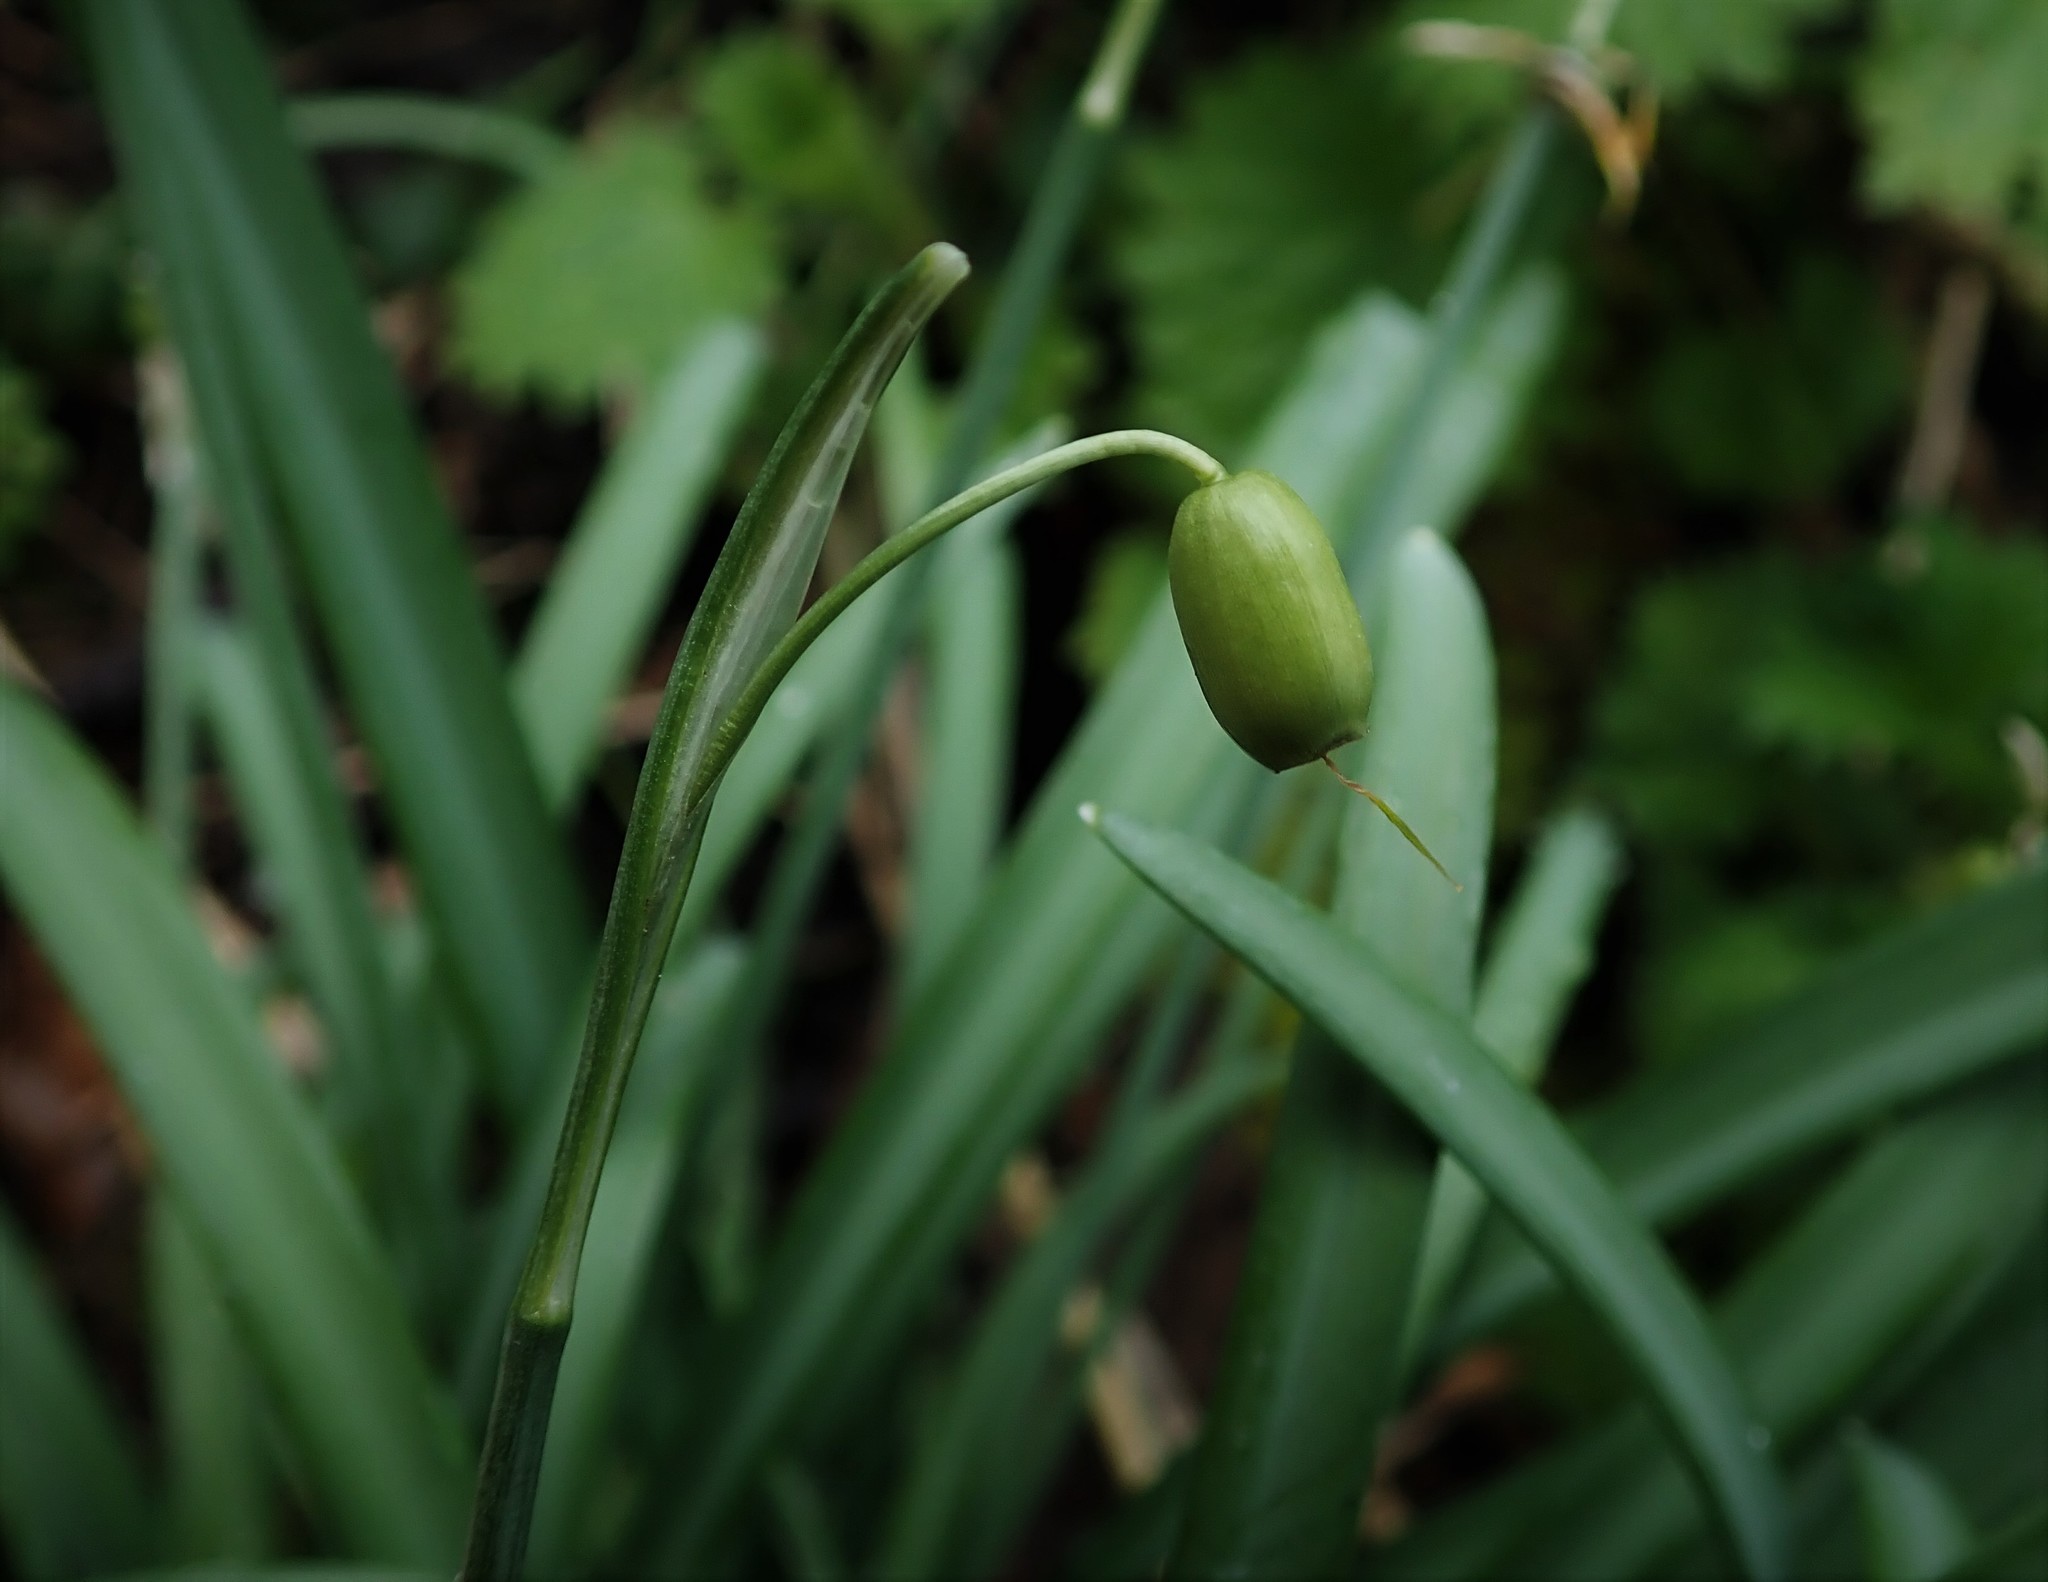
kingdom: Plantae
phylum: Tracheophyta
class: Liliopsida
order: Asparagales
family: Amaryllidaceae
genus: Galanthus
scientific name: Galanthus nivalis
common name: Snowdrop
